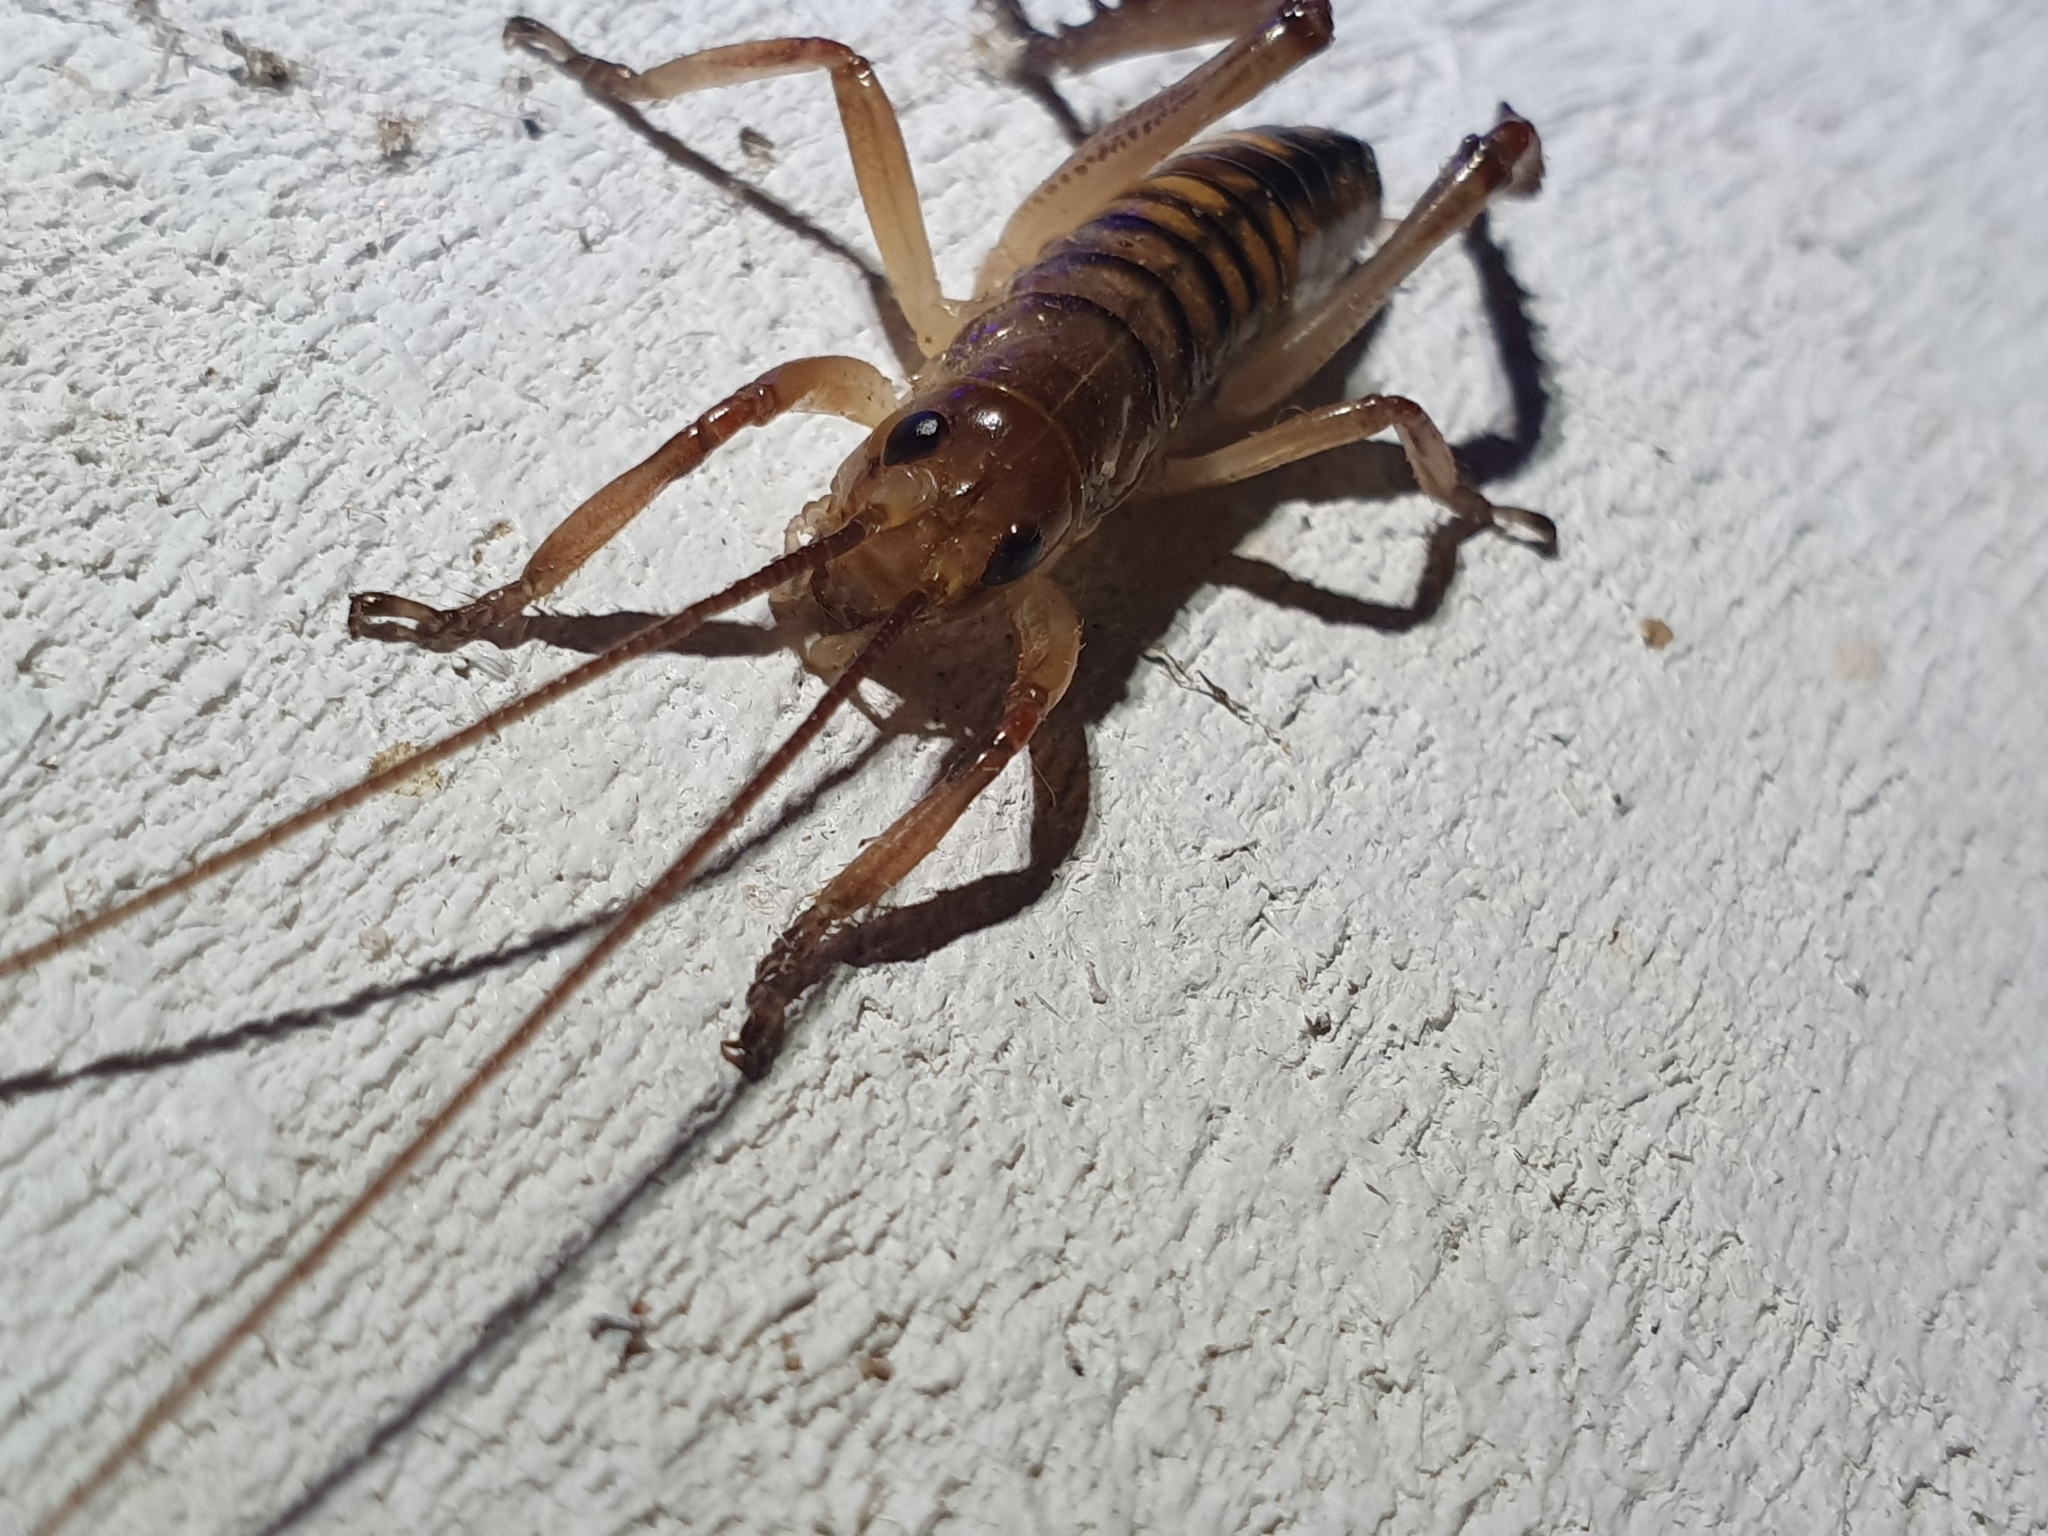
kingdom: Animalia
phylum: Arthropoda
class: Insecta
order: Orthoptera
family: Anostostomatidae
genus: Hemideina
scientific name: Hemideina crassidens
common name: Wellington tree weta
